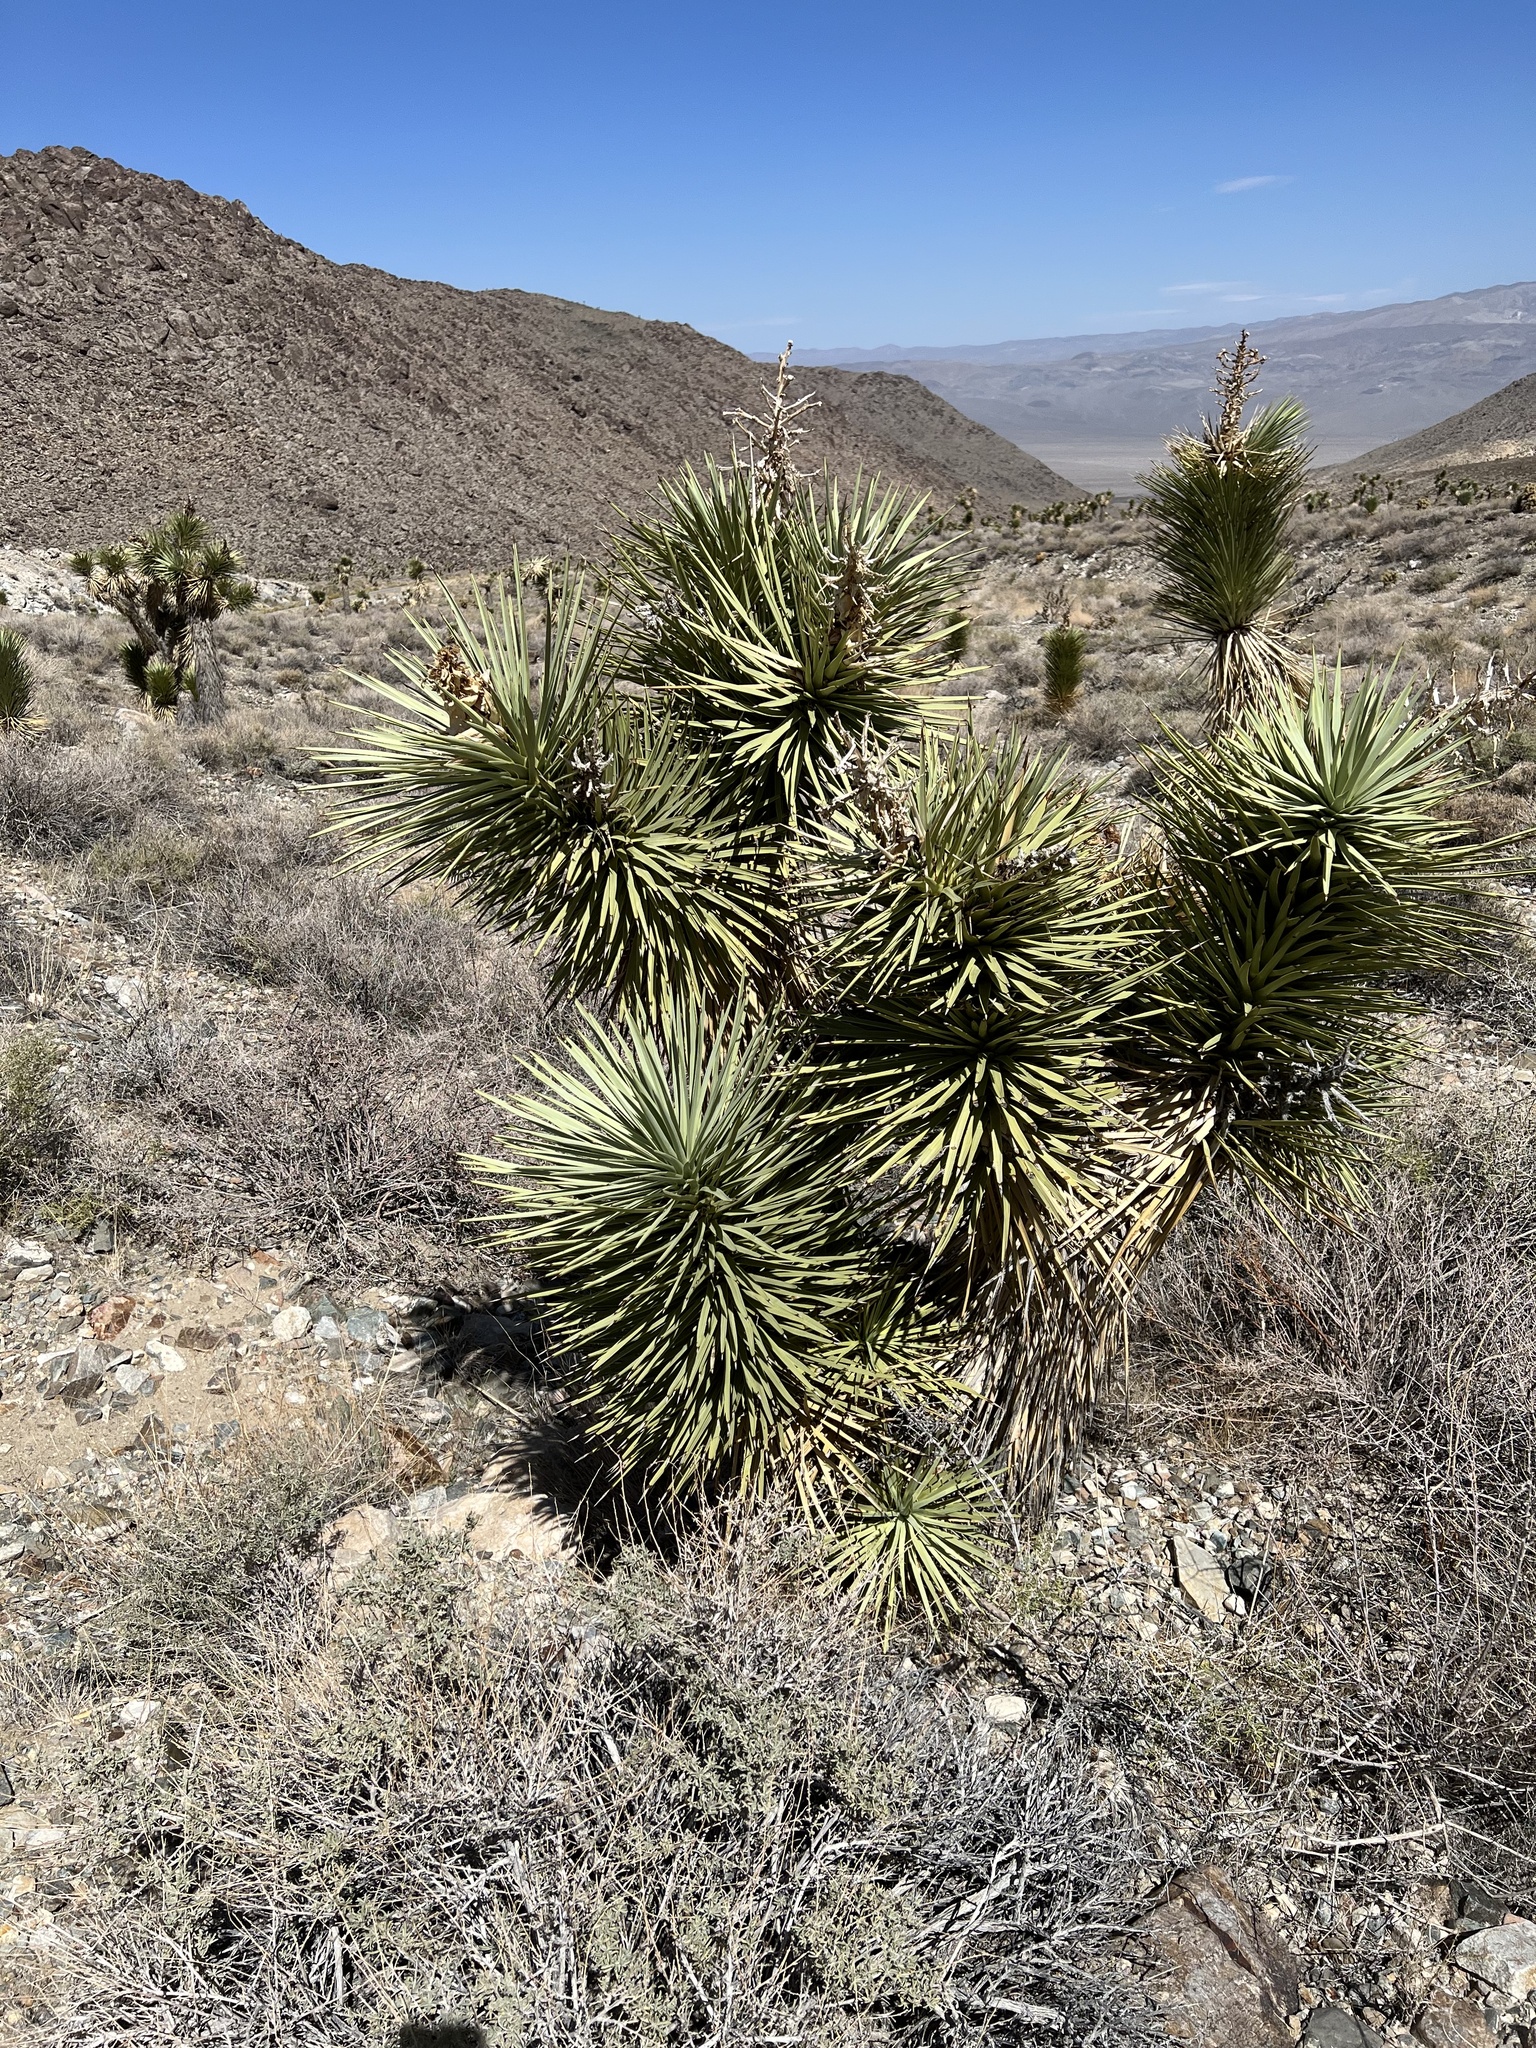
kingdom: Plantae
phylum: Tracheophyta
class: Liliopsida
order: Asparagales
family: Asparagaceae
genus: Yucca
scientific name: Yucca brevifolia
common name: Joshua tree
